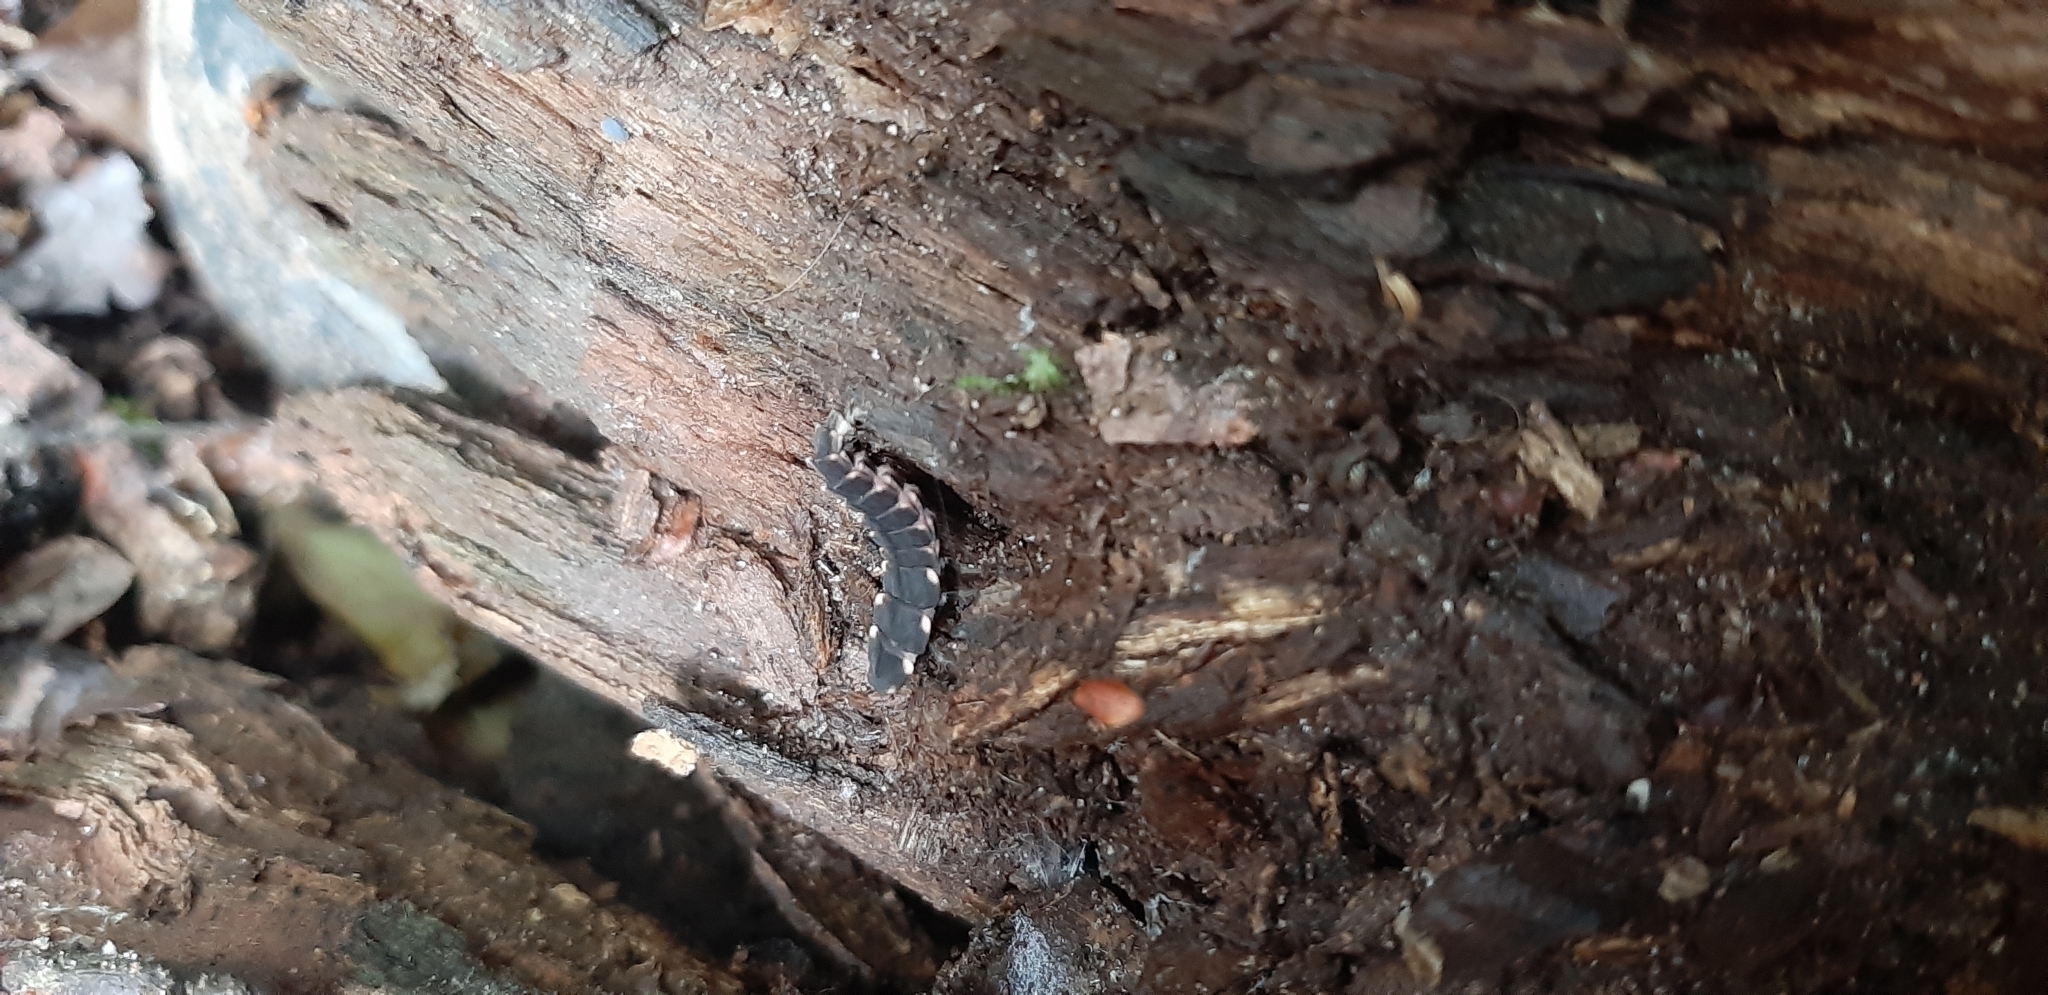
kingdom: Animalia
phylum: Arthropoda
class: Insecta
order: Coleoptera
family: Lampyridae
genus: Lampyris
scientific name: Lampyris noctiluca
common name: Glow-worm
